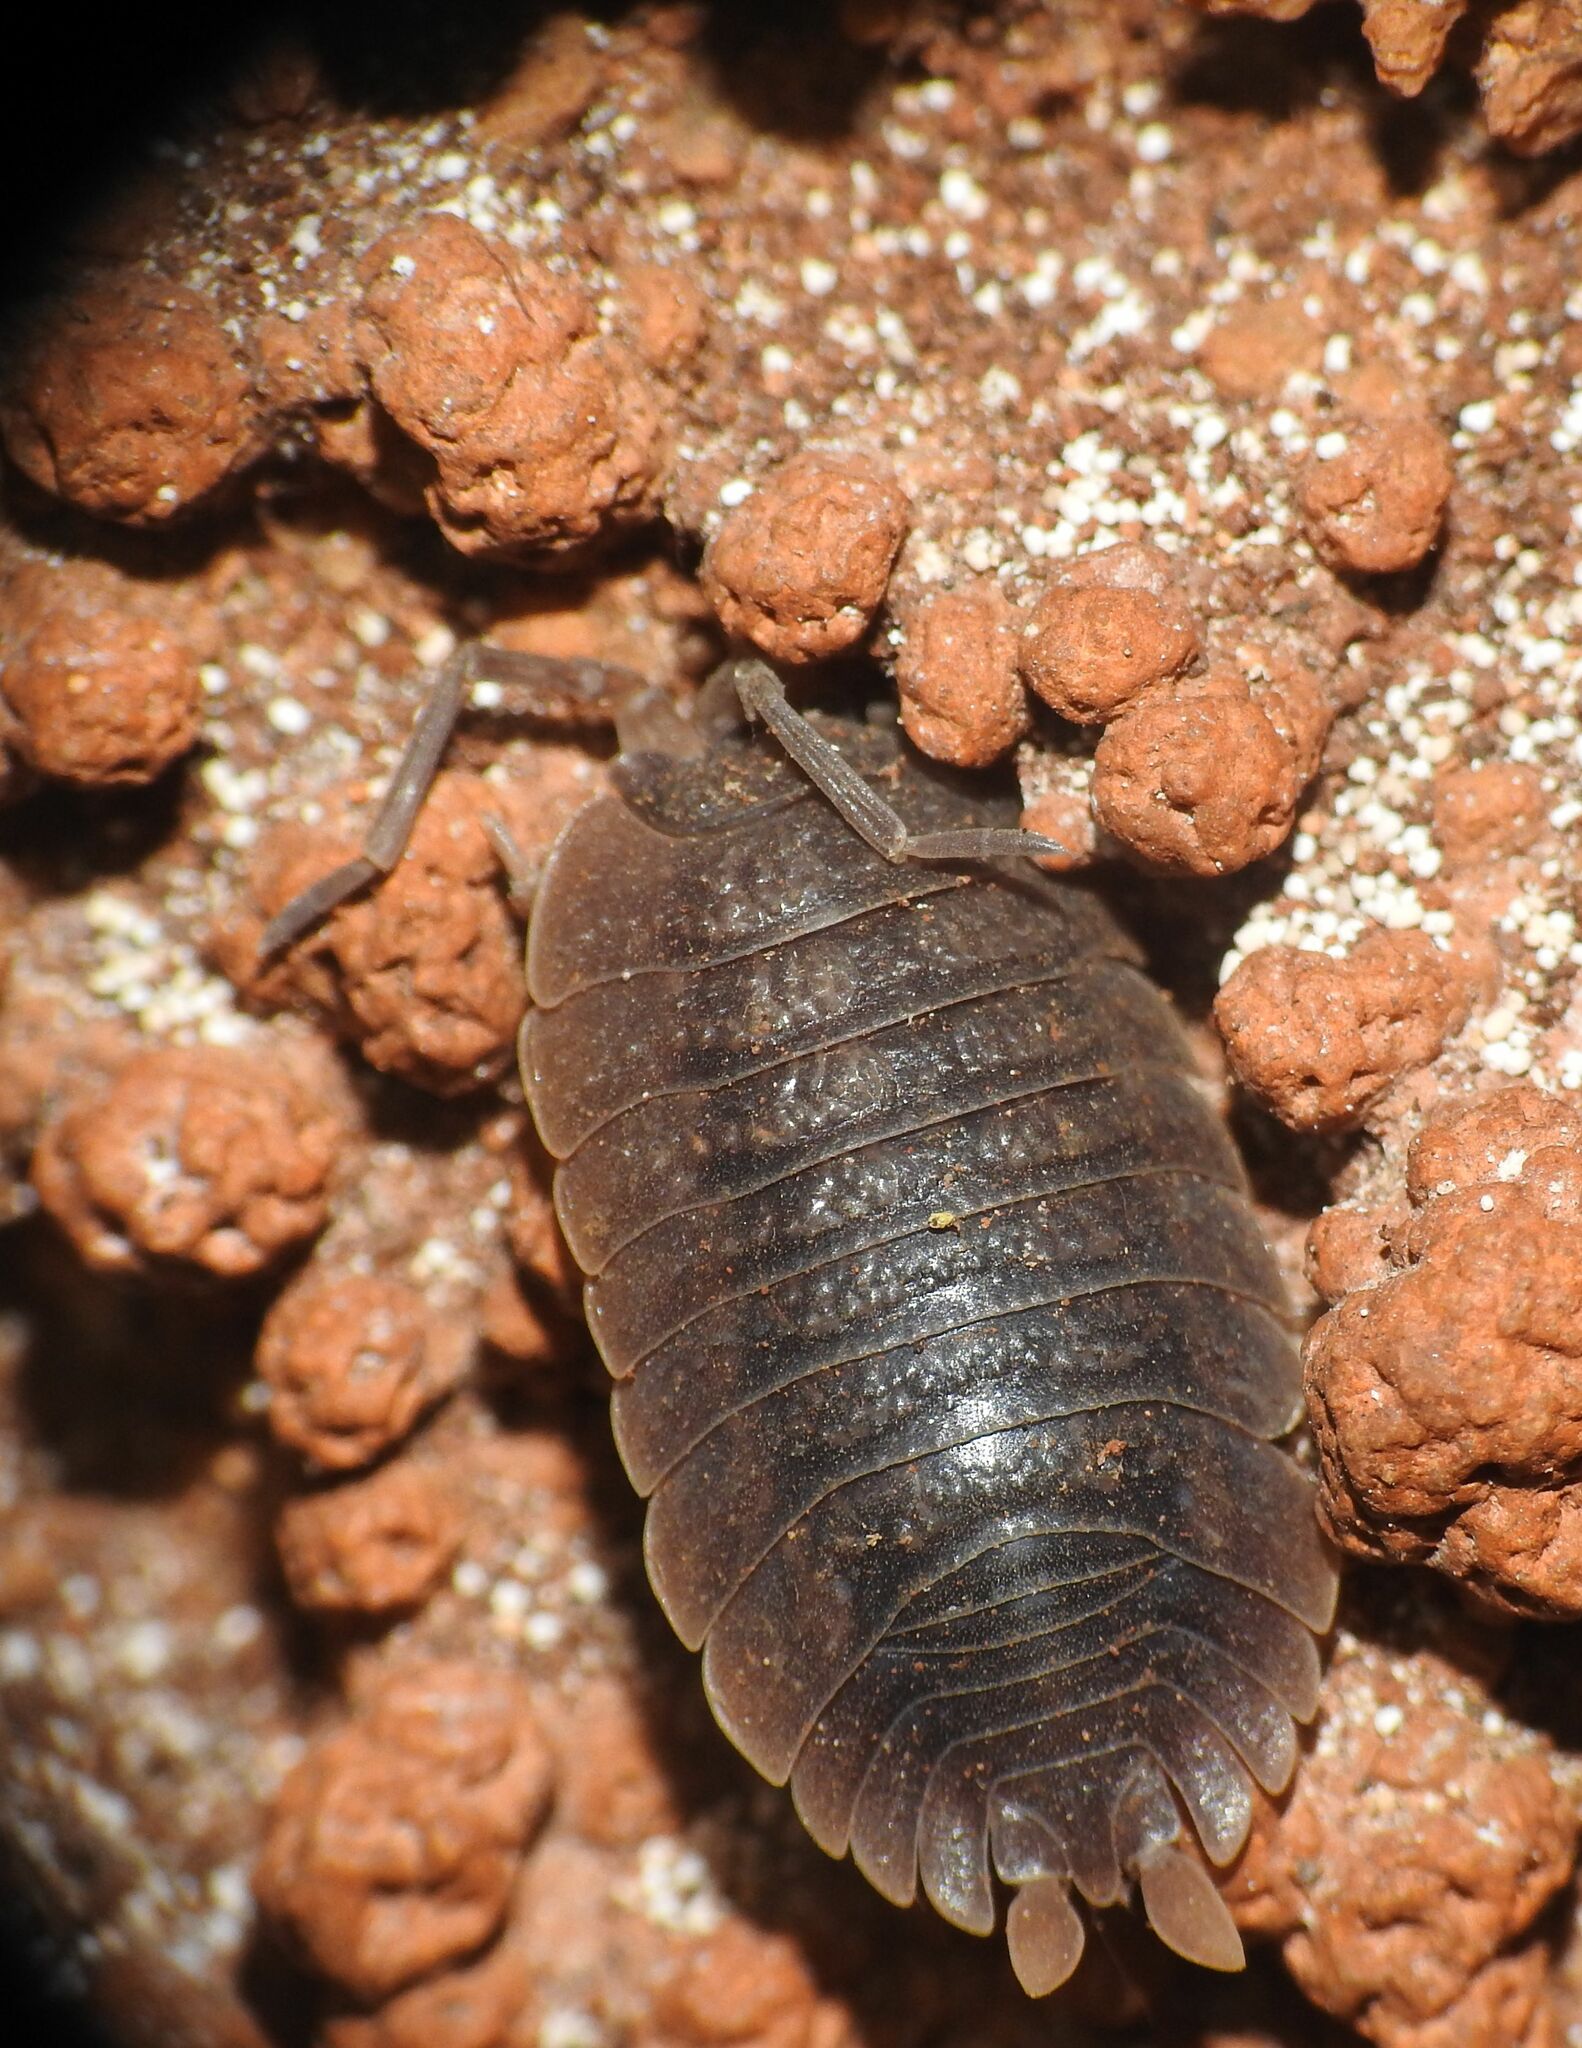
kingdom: Animalia
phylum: Arthropoda
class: Malacostraca
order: Isopoda
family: Porcellionidae
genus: Porcellio
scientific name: Porcellio dilatatus
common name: Isopod
